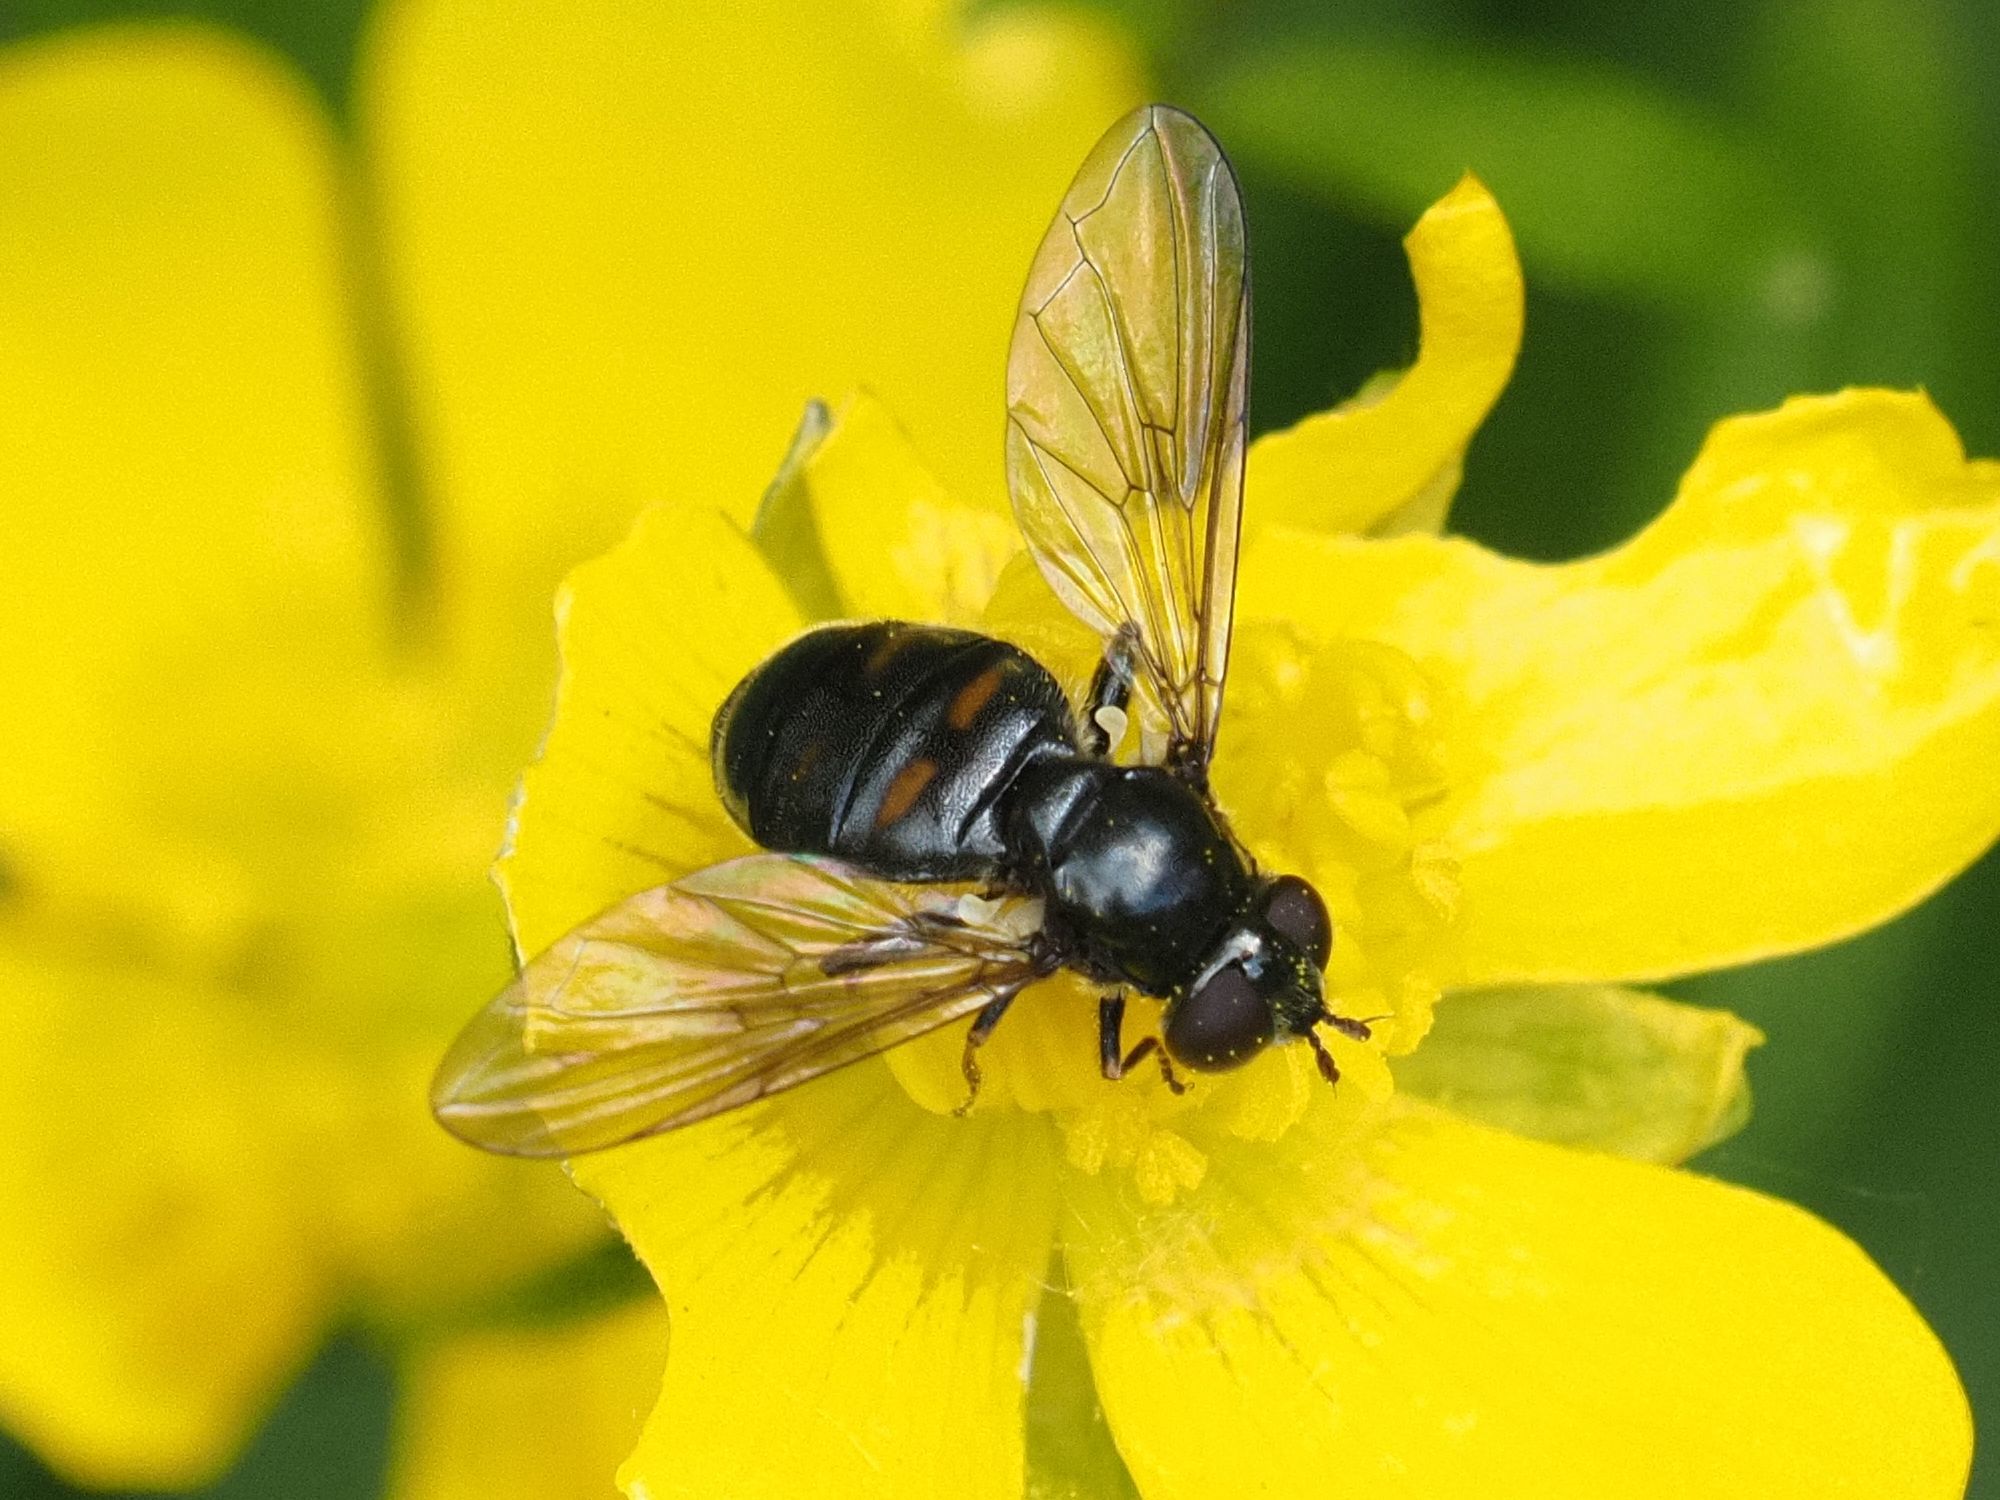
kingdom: Animalia
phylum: Arthropoda
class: Insecta
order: Diptera
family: Syrphidae
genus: Pipiza
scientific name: Pipiza quadrimaculata
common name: Four-spotted pipiza
